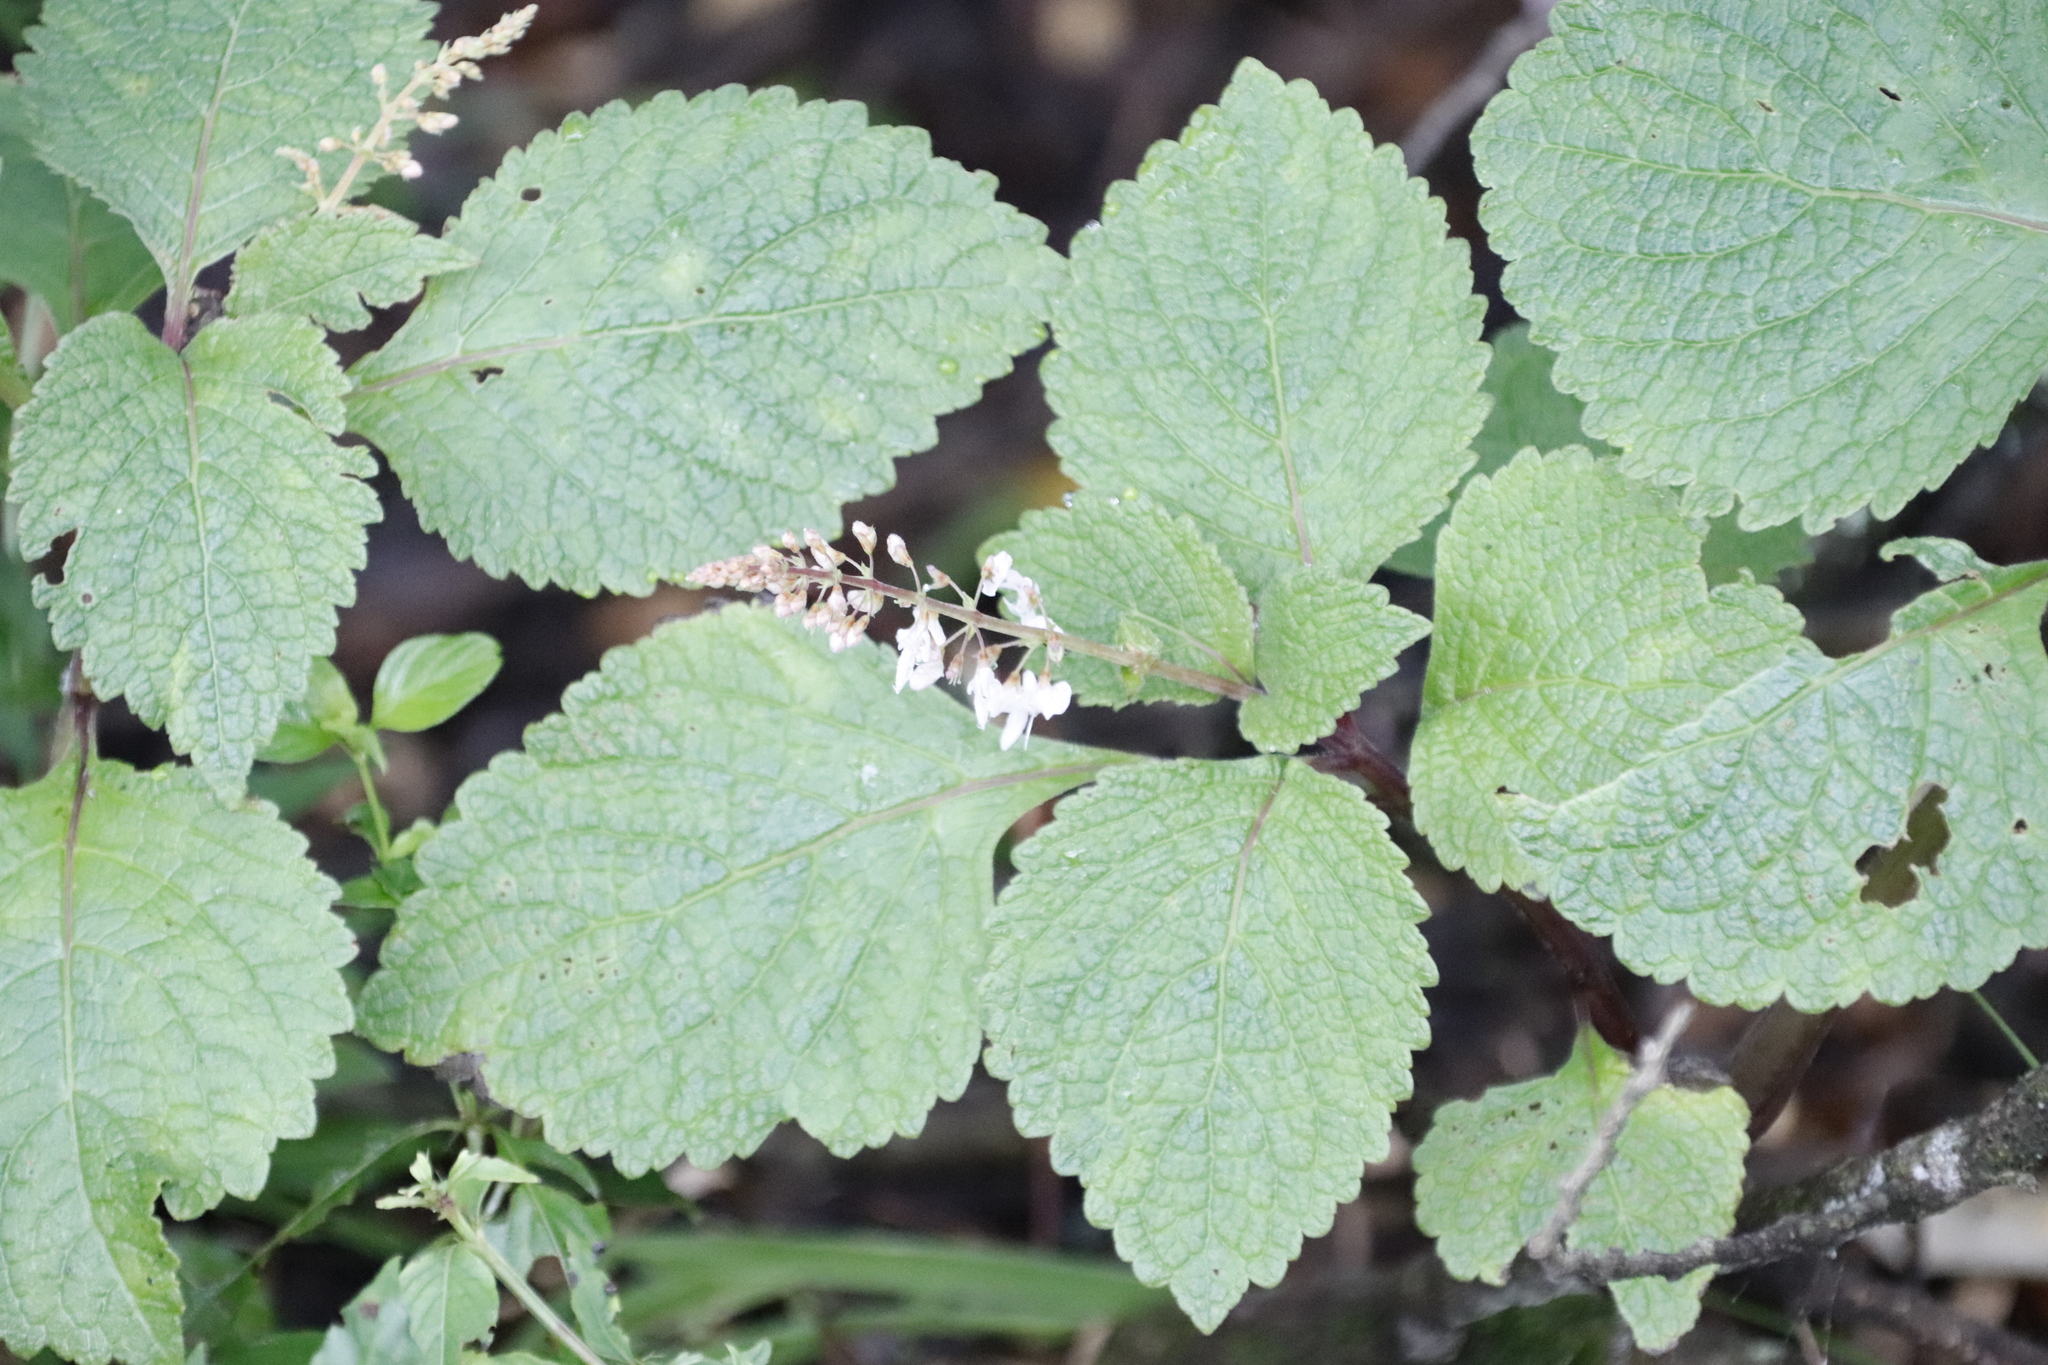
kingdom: Plantae
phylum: Tracheophyta
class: Magnoliopsida
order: Lamiales
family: Lamiaceae
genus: Plectranthus
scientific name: Plectranthus fruticosus
